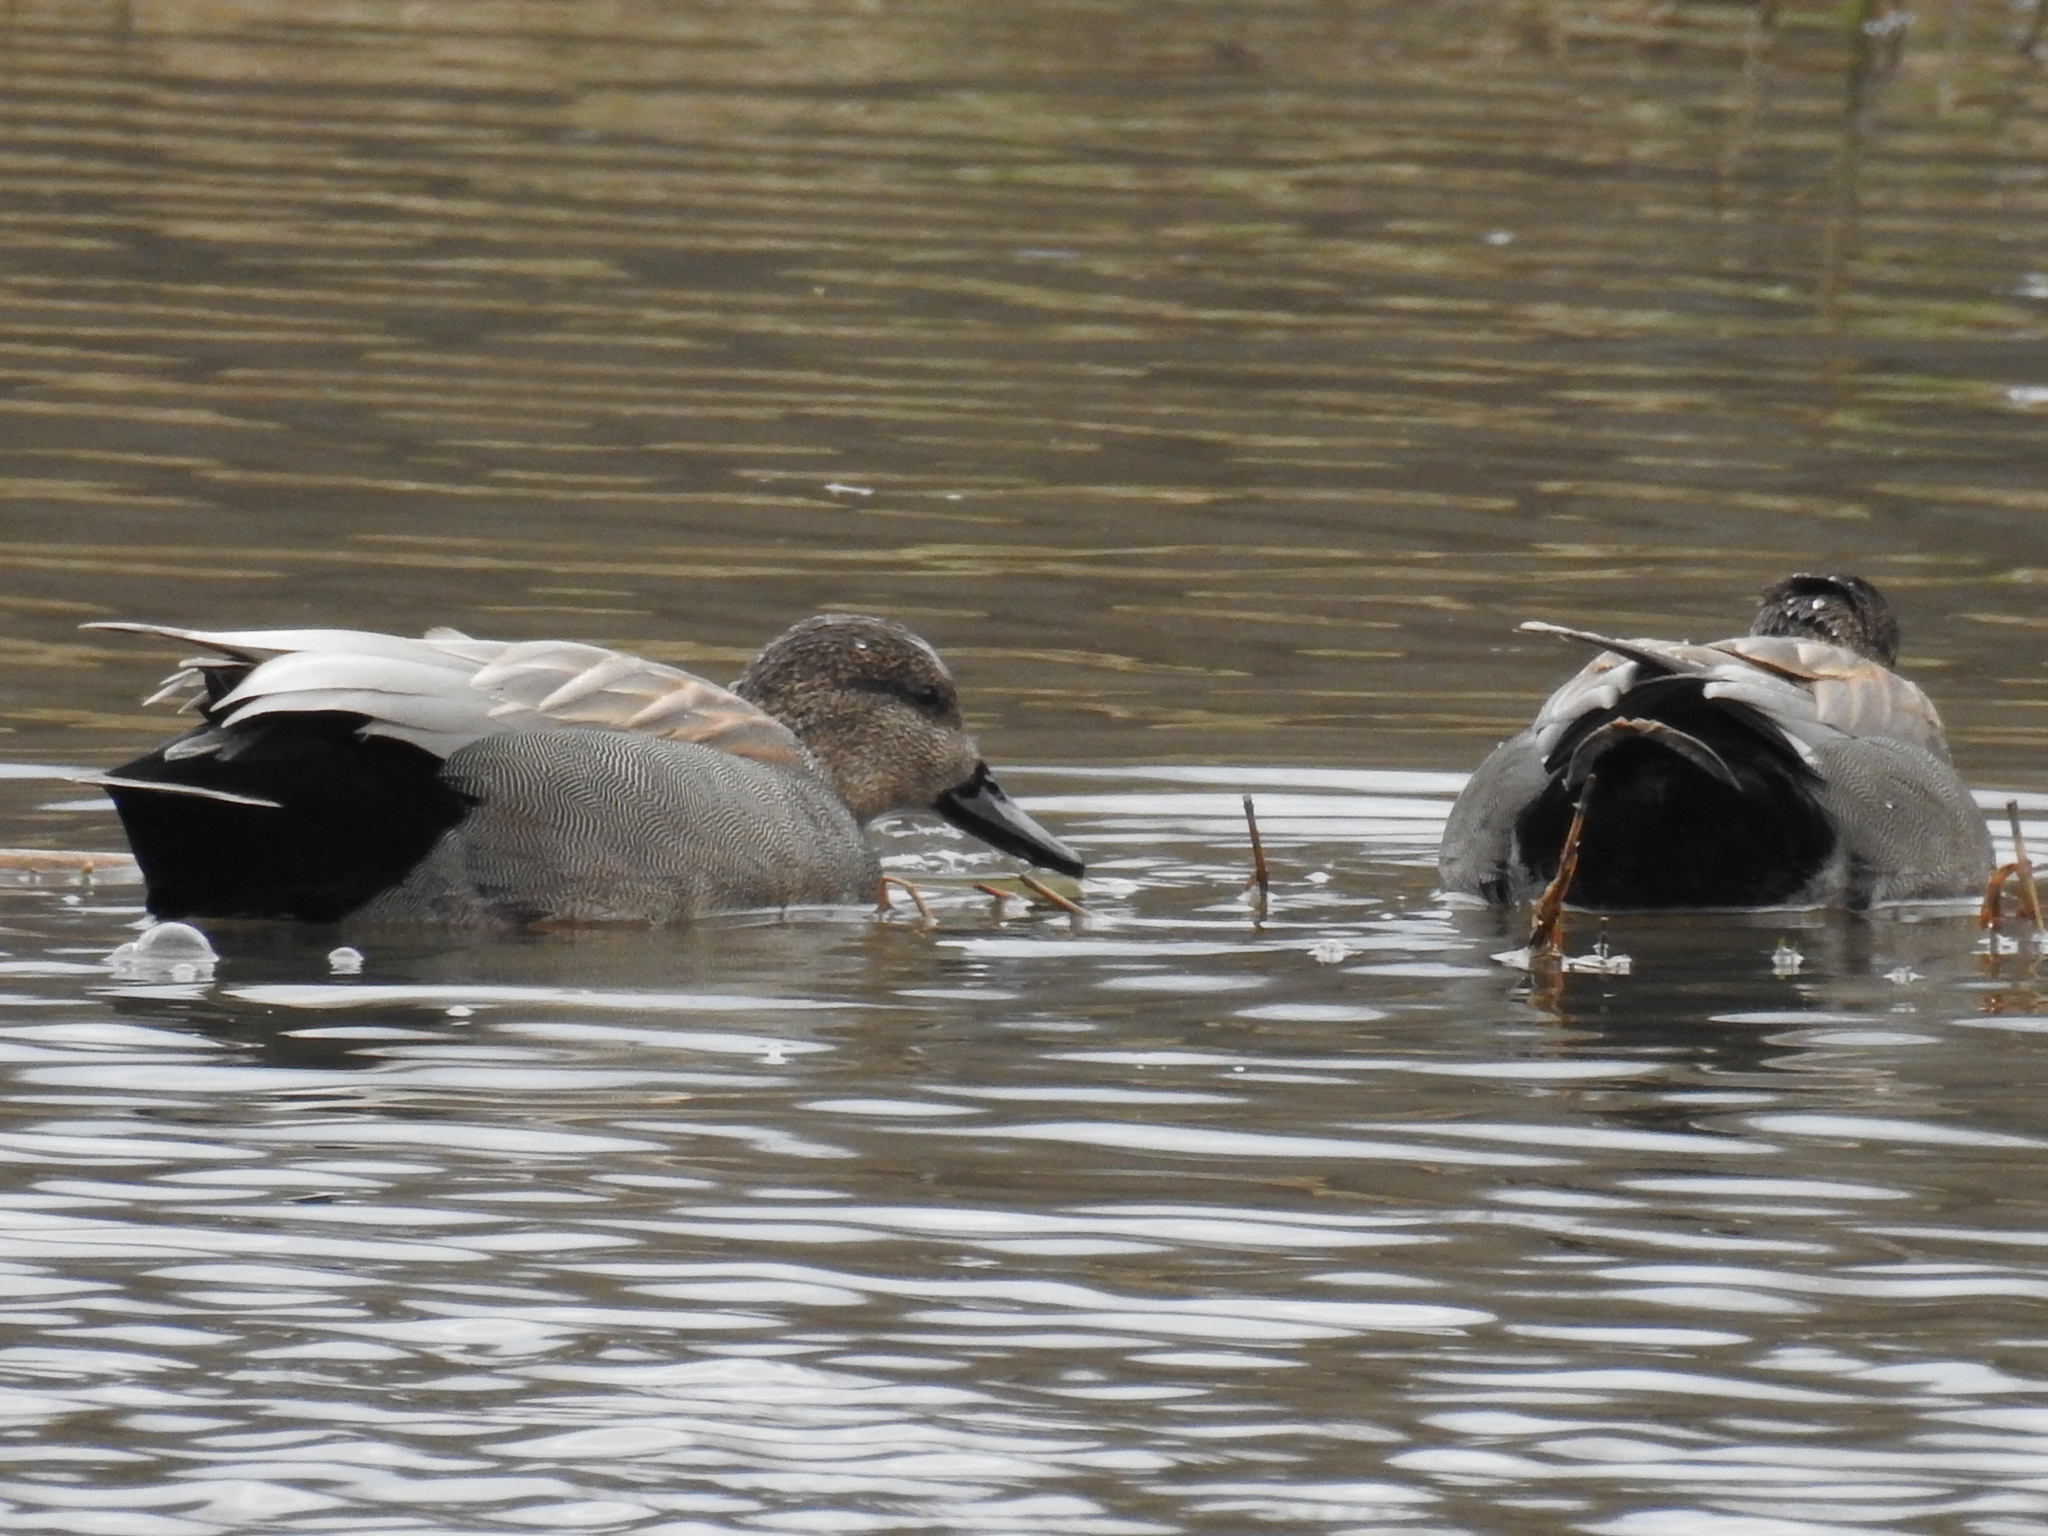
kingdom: Animalia
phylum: Chordata
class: Aves
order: Anseriformes
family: Anatidae
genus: Mareca
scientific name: Mareca strepera
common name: Gadwall
